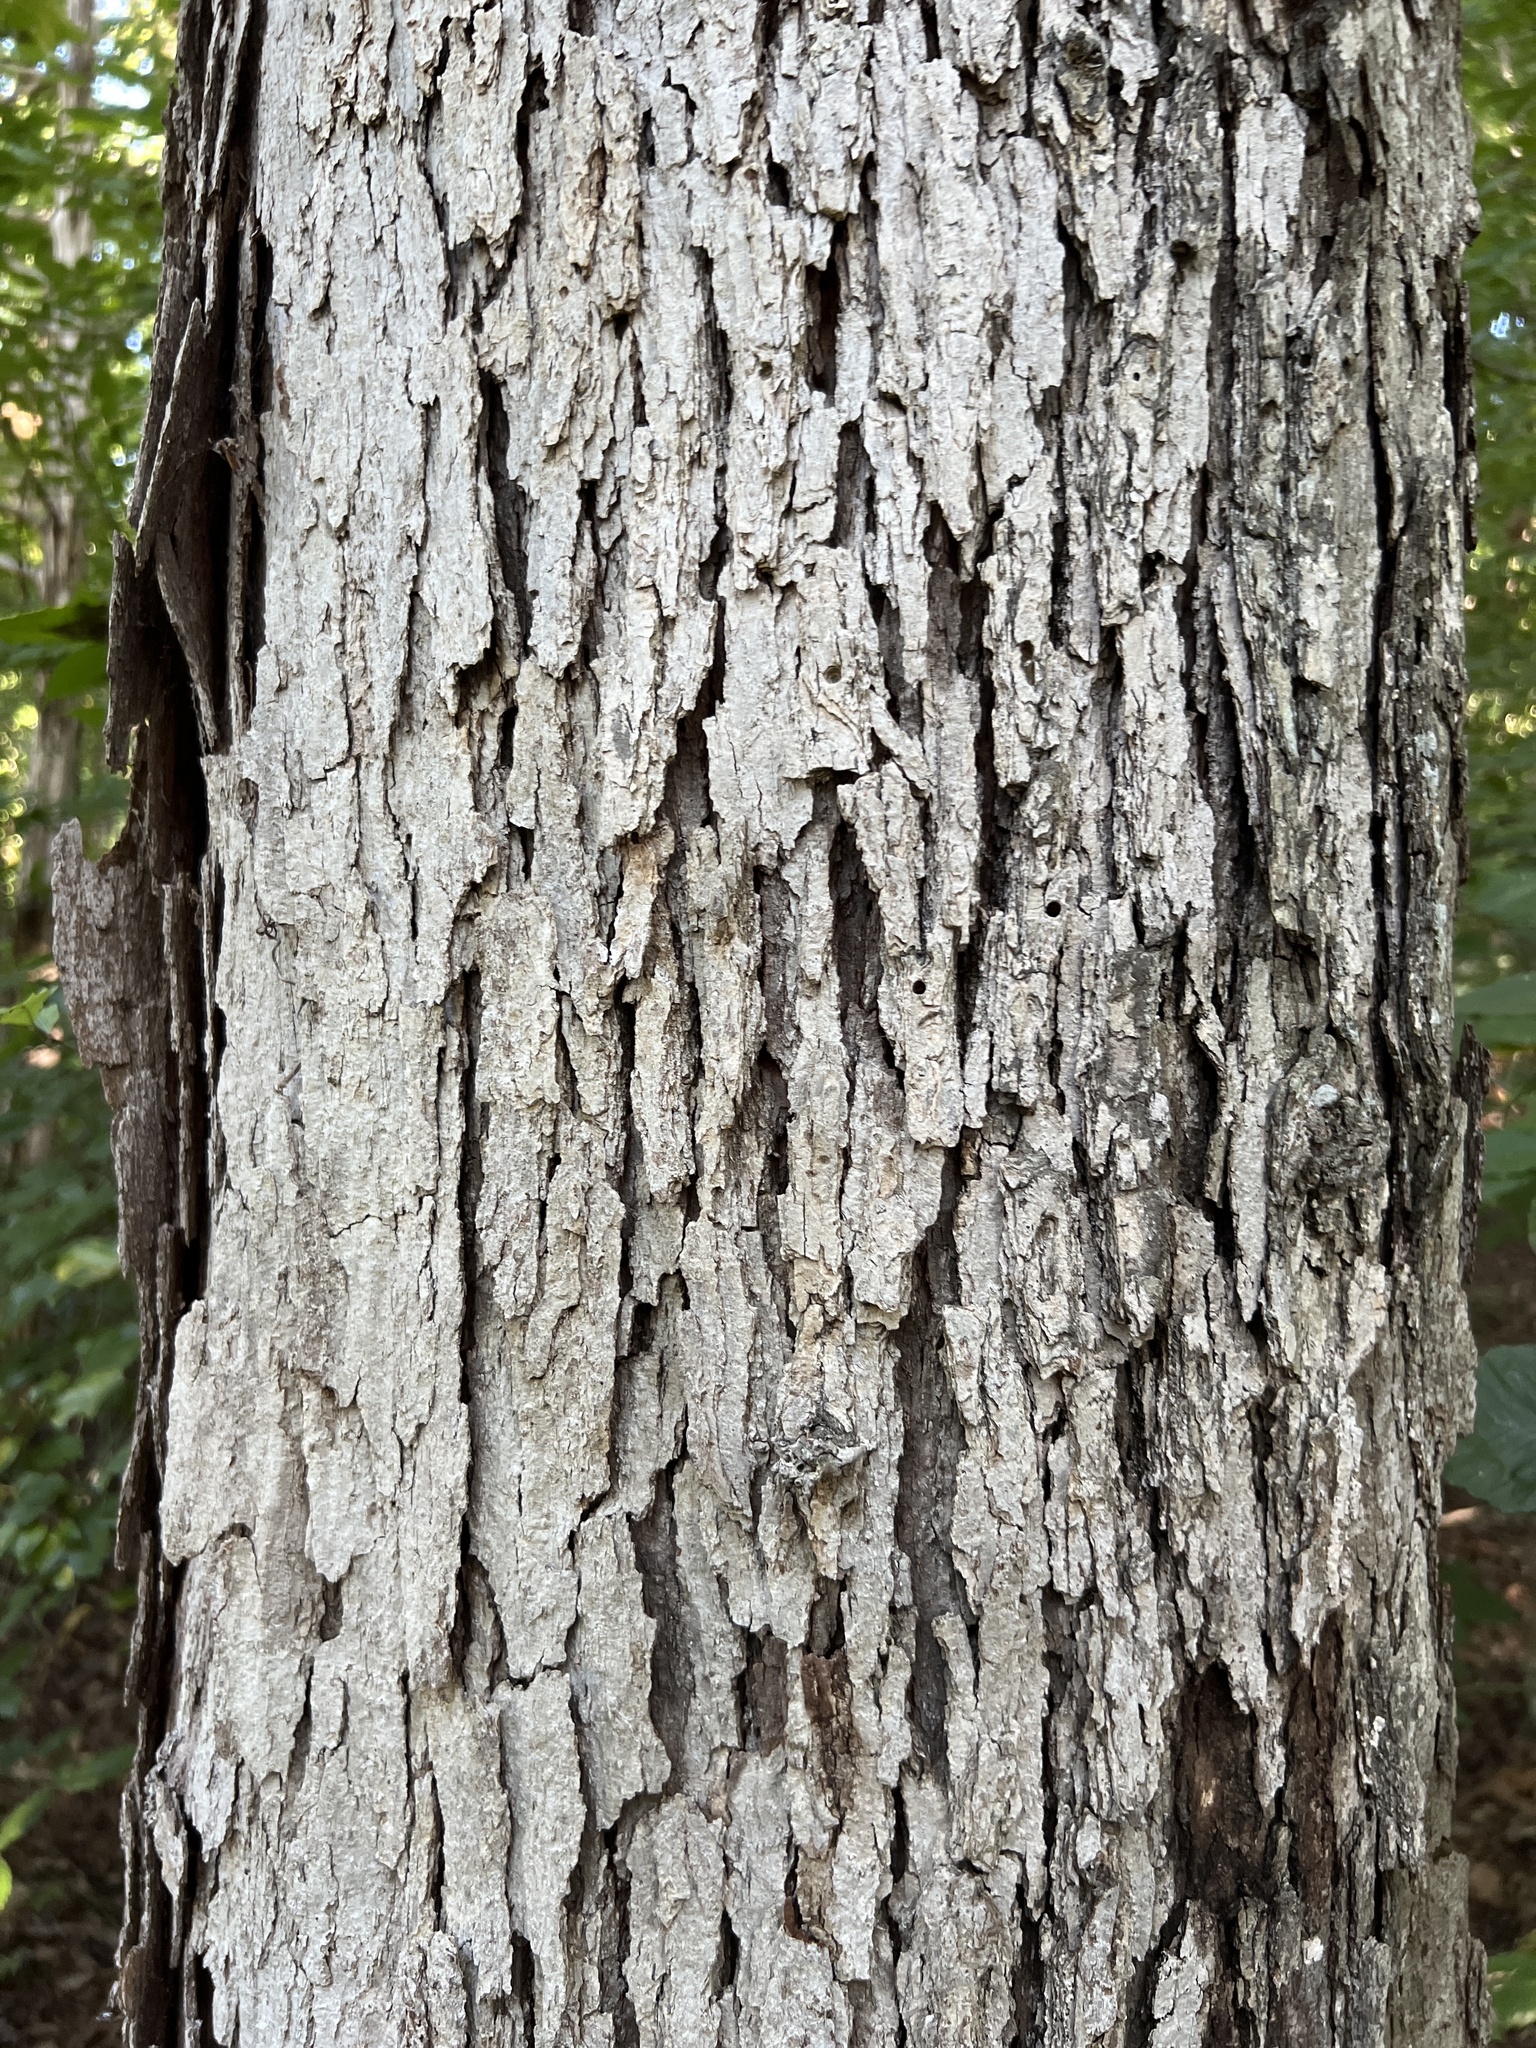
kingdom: Plantae
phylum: Tracheophyta
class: Magnoliopsida
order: Fagales
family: Fagaceae
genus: Quercus
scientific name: Quercus alba
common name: White oak
